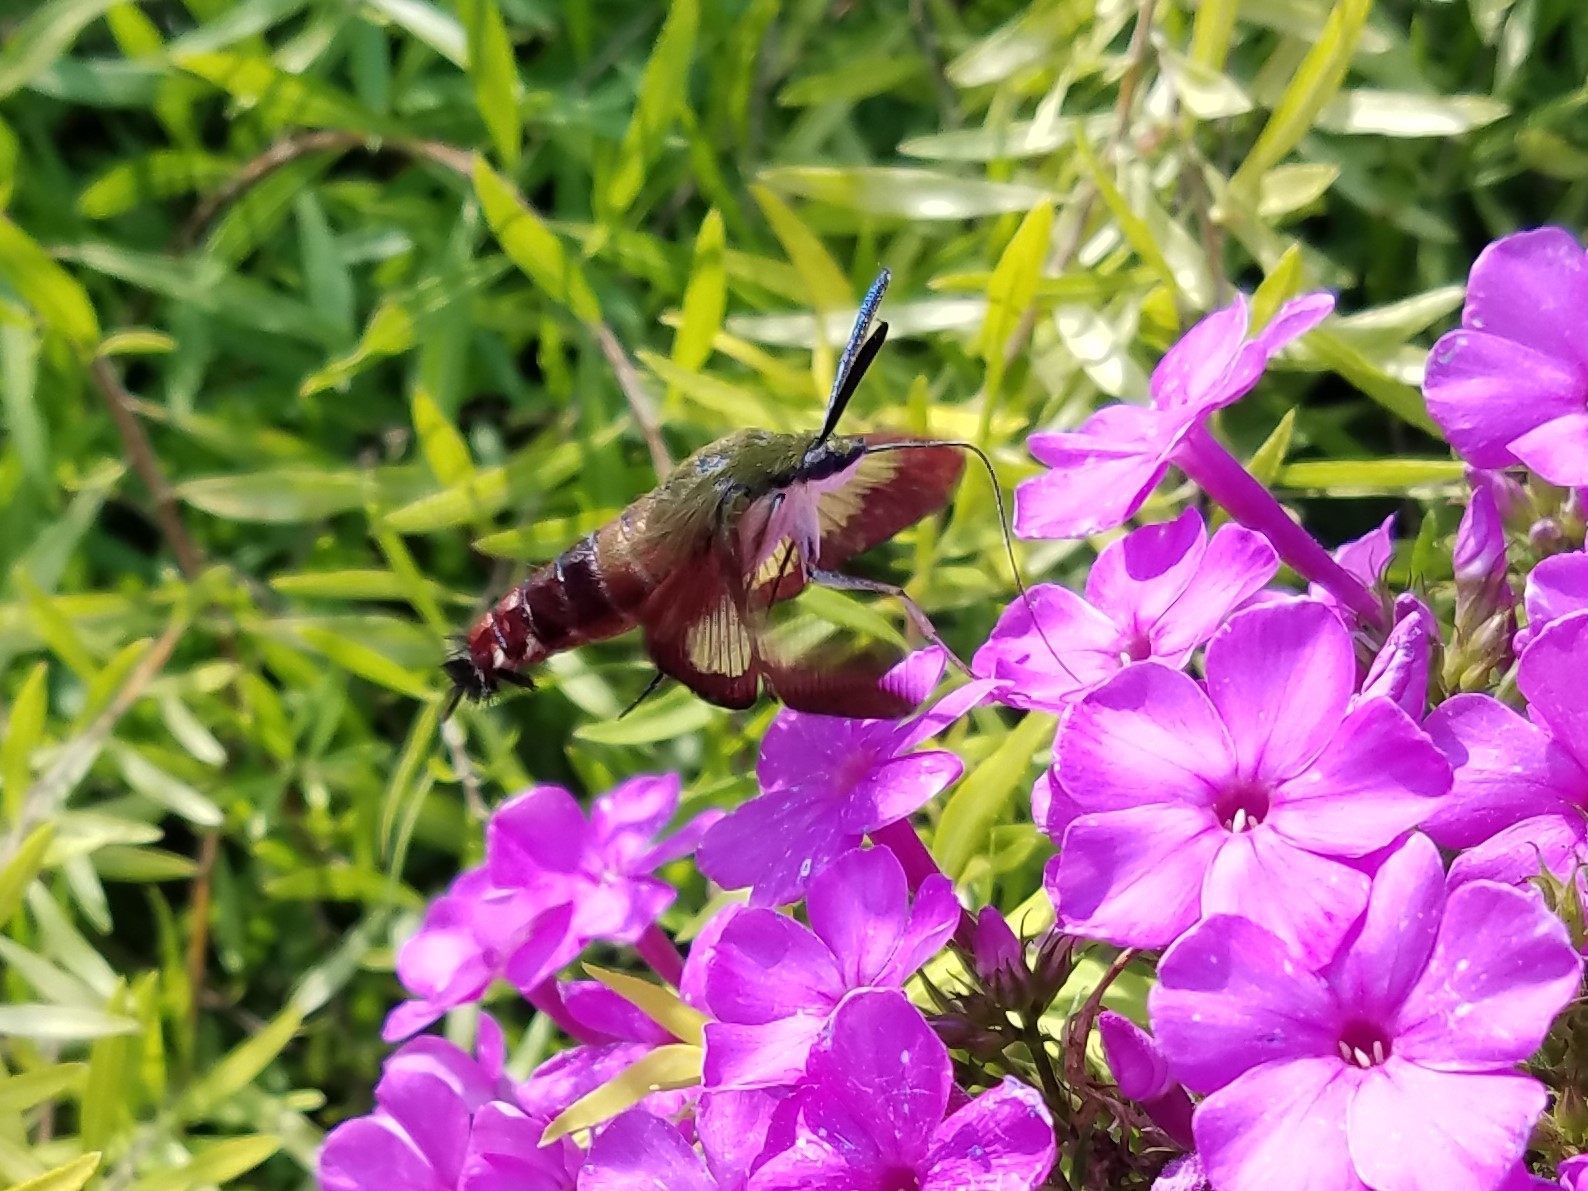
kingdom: Animalia
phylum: Arthropoda
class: Insecta
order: Lepidoptera
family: Sphingidae
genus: Hemaris
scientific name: Hemaris thysbe
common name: Common clear-wing
